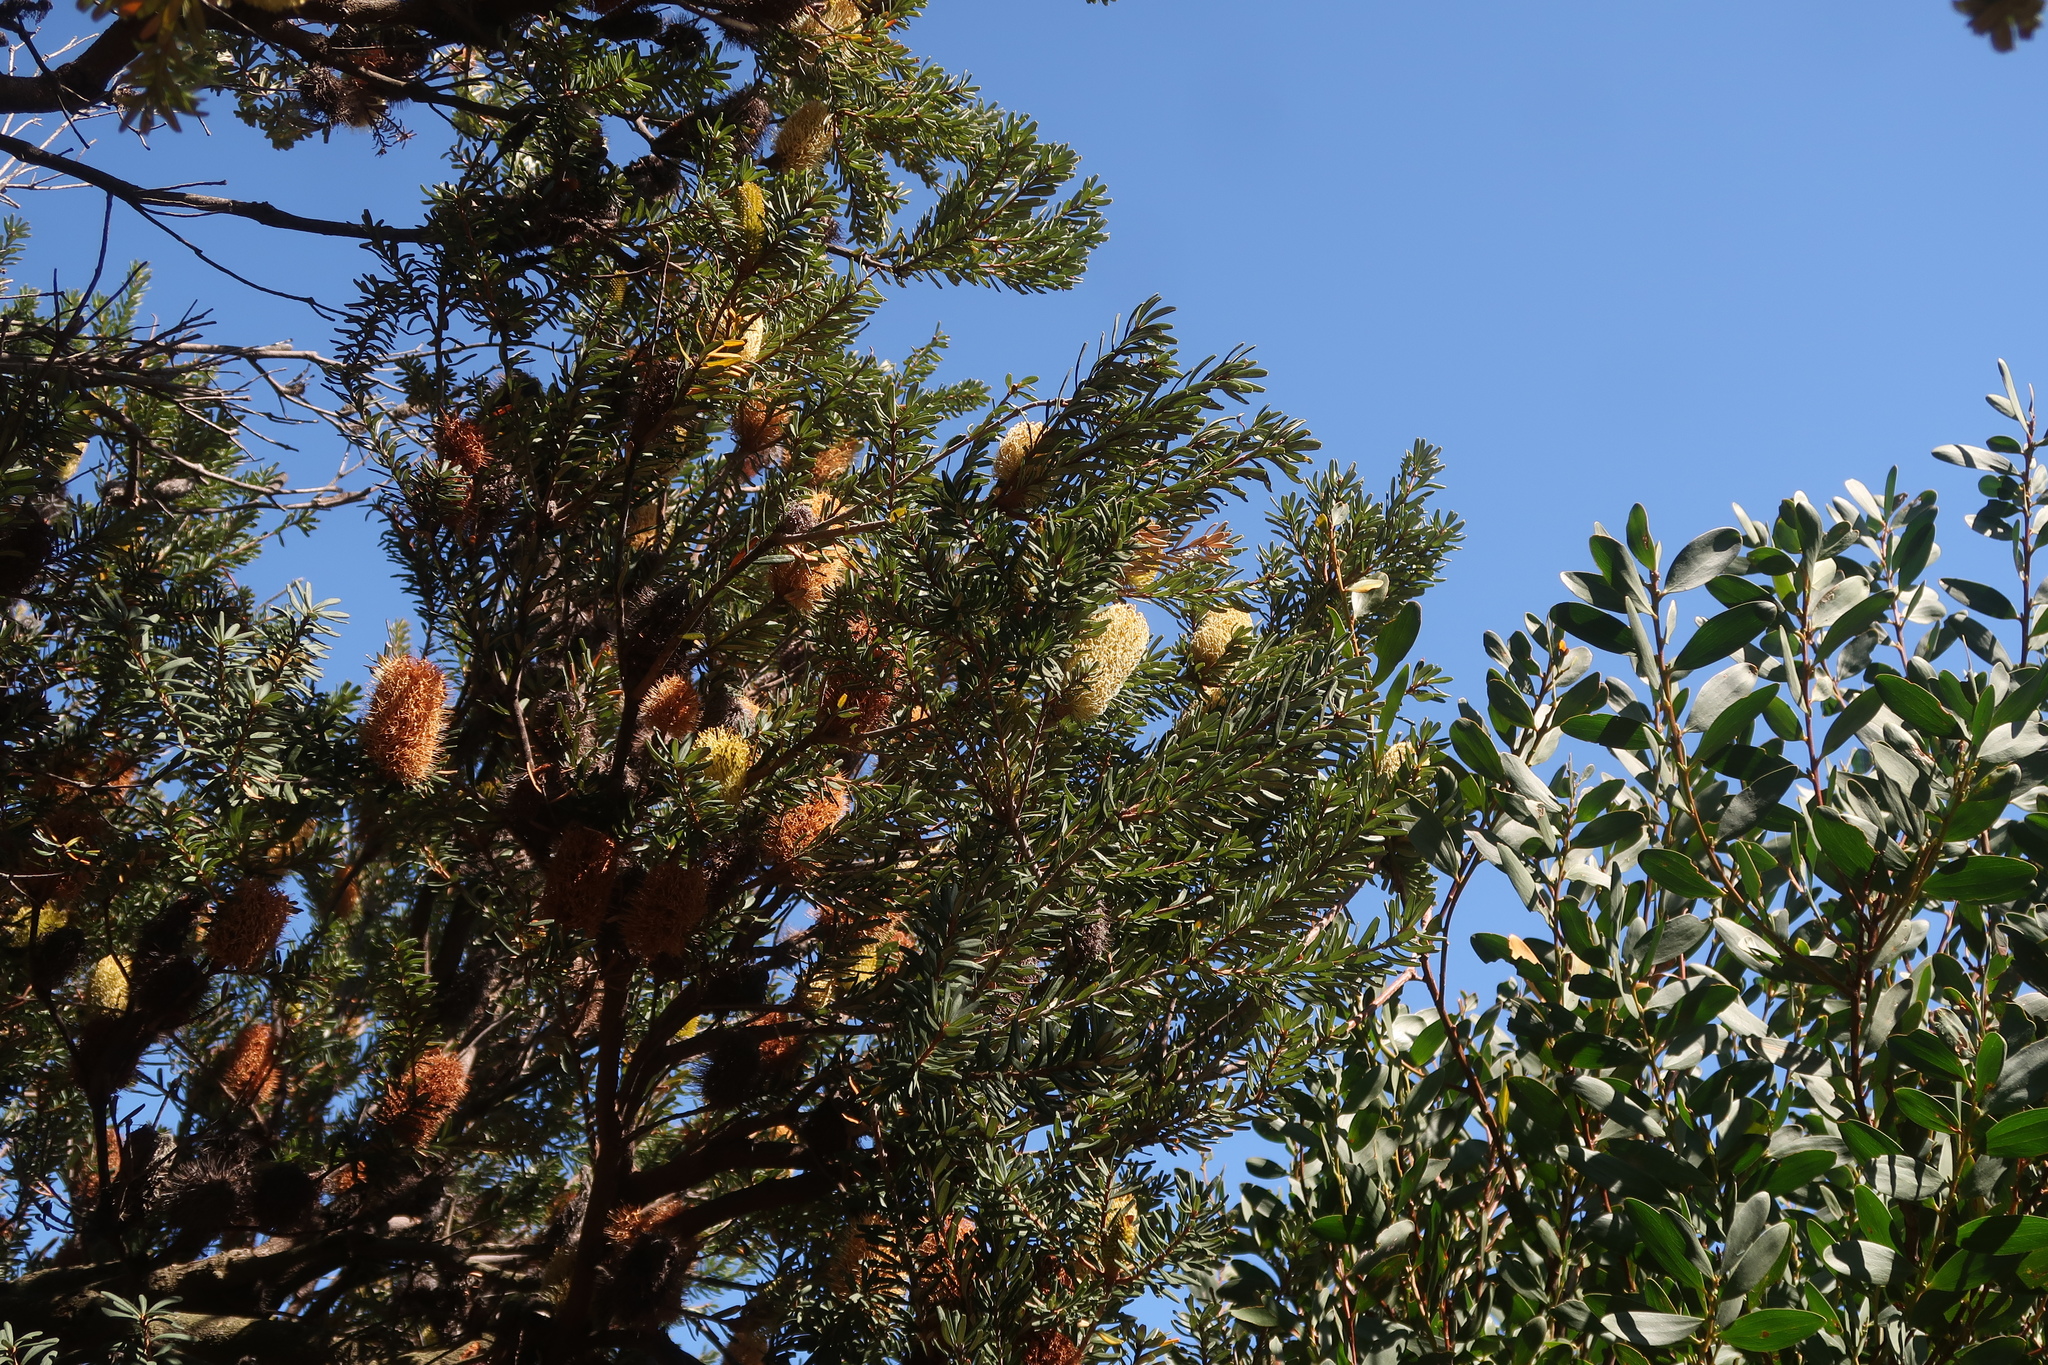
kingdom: Plantae
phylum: Tracheophyta
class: Magnoliopsida
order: Proteales
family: Proteaceae
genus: Banksia
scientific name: Banksia marginata
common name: Silver banksia
